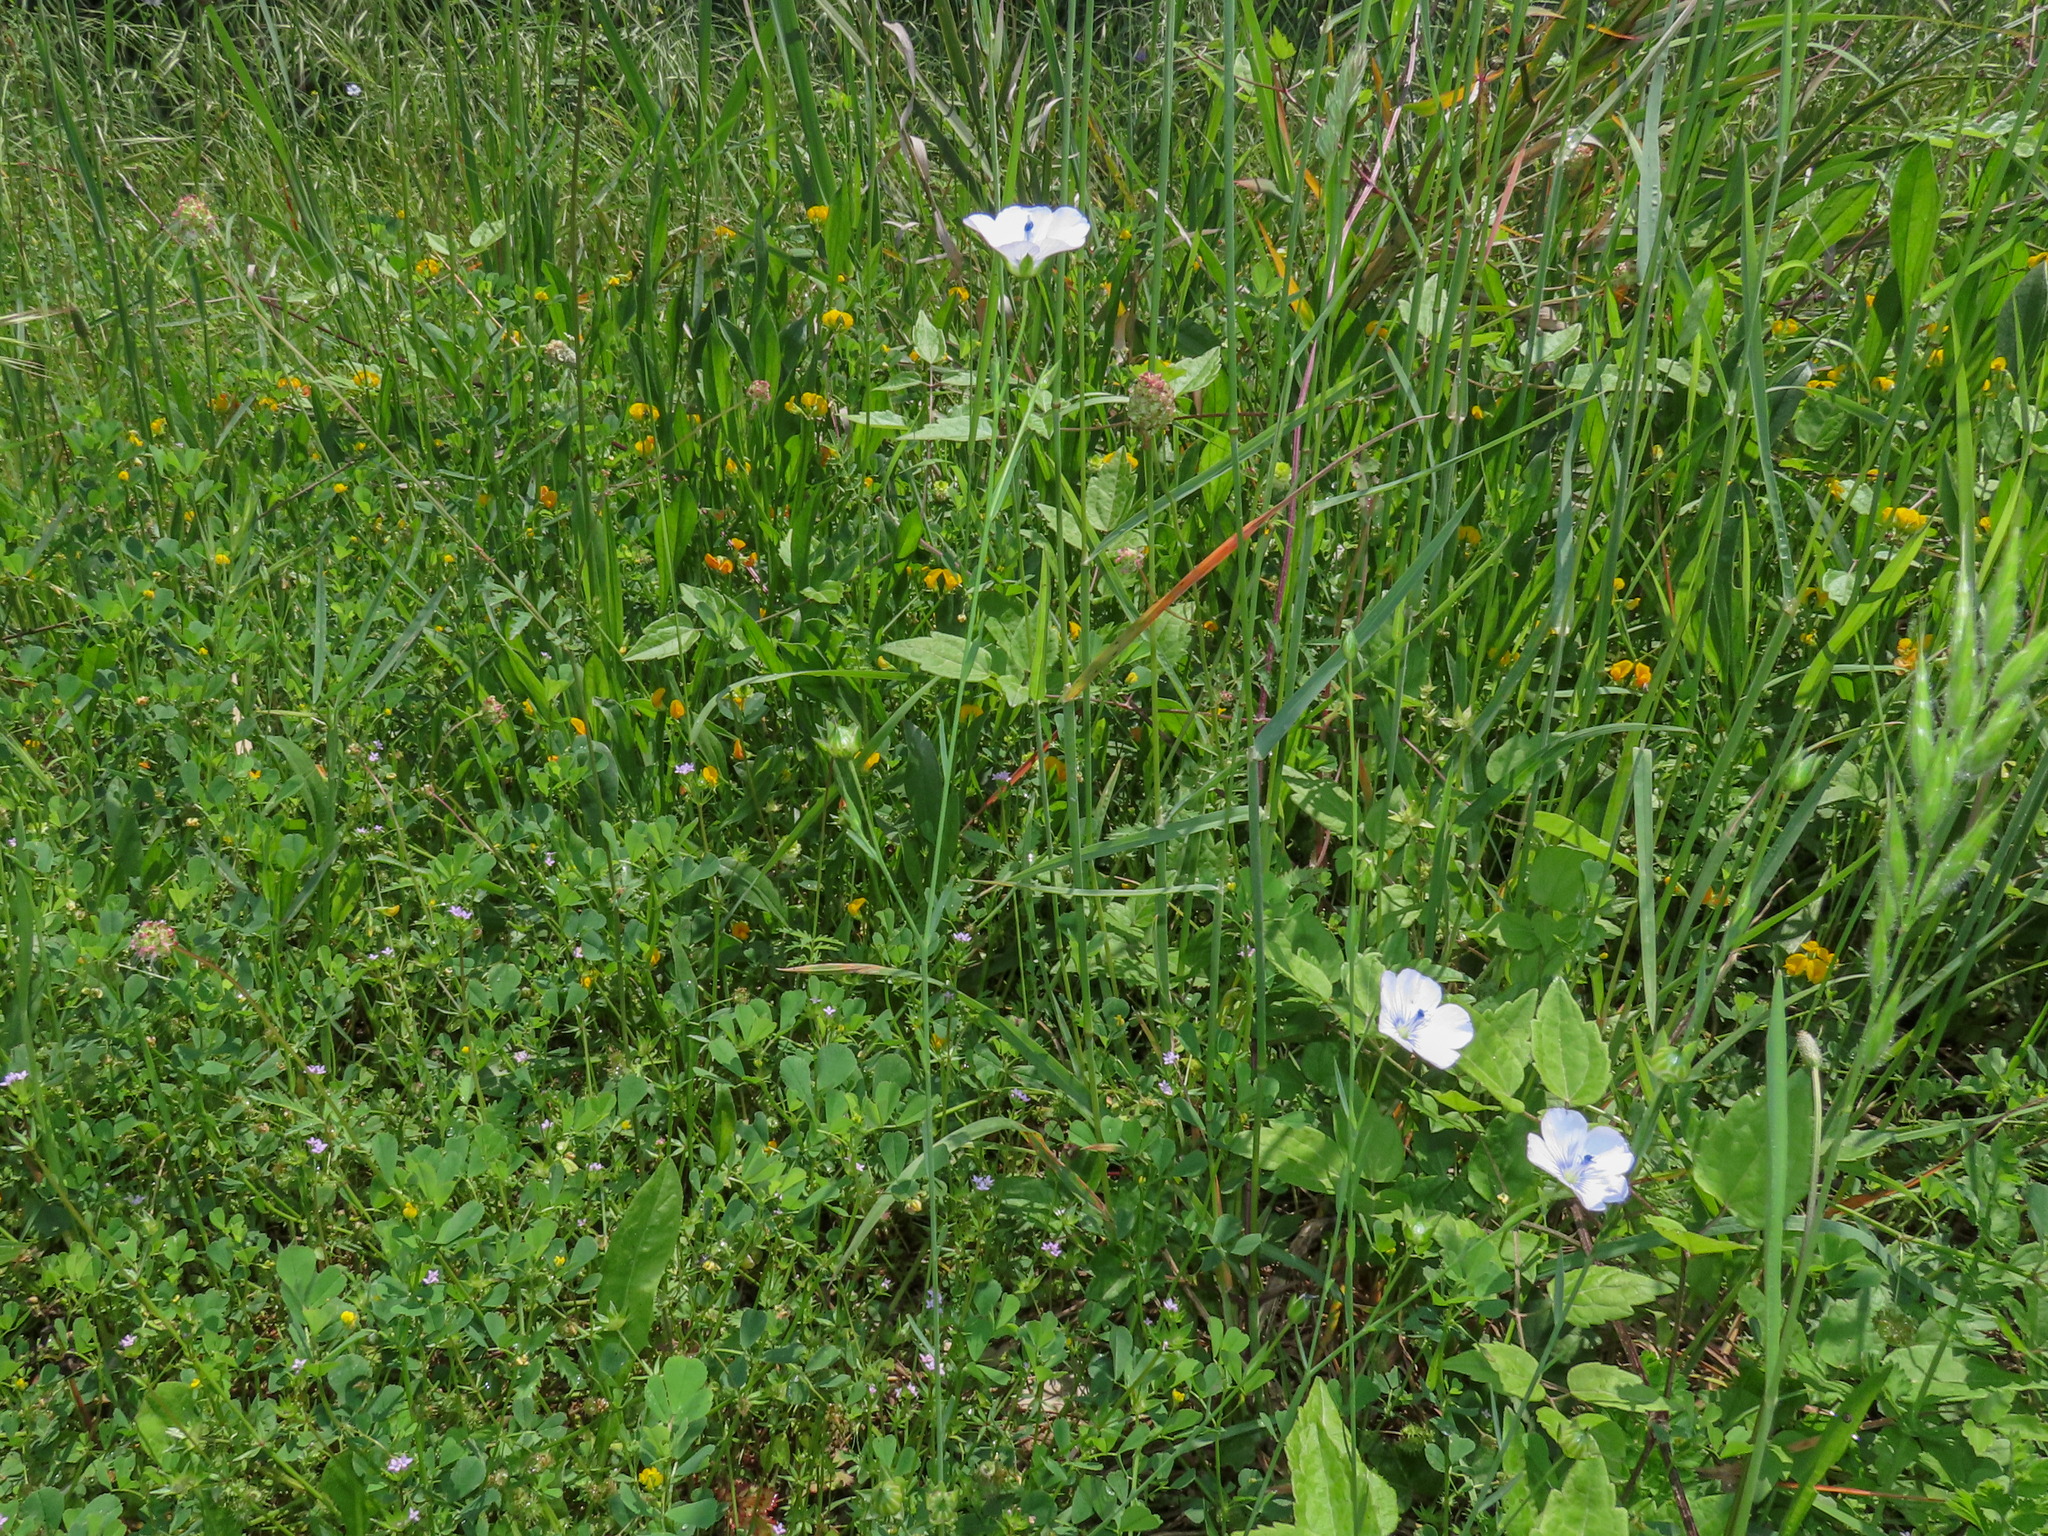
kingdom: Plantae
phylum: Tracheophyta
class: Magnoliopsida
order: Malpighiales
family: Linaceae
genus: Linum
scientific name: Linum bienne
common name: Pale flax
